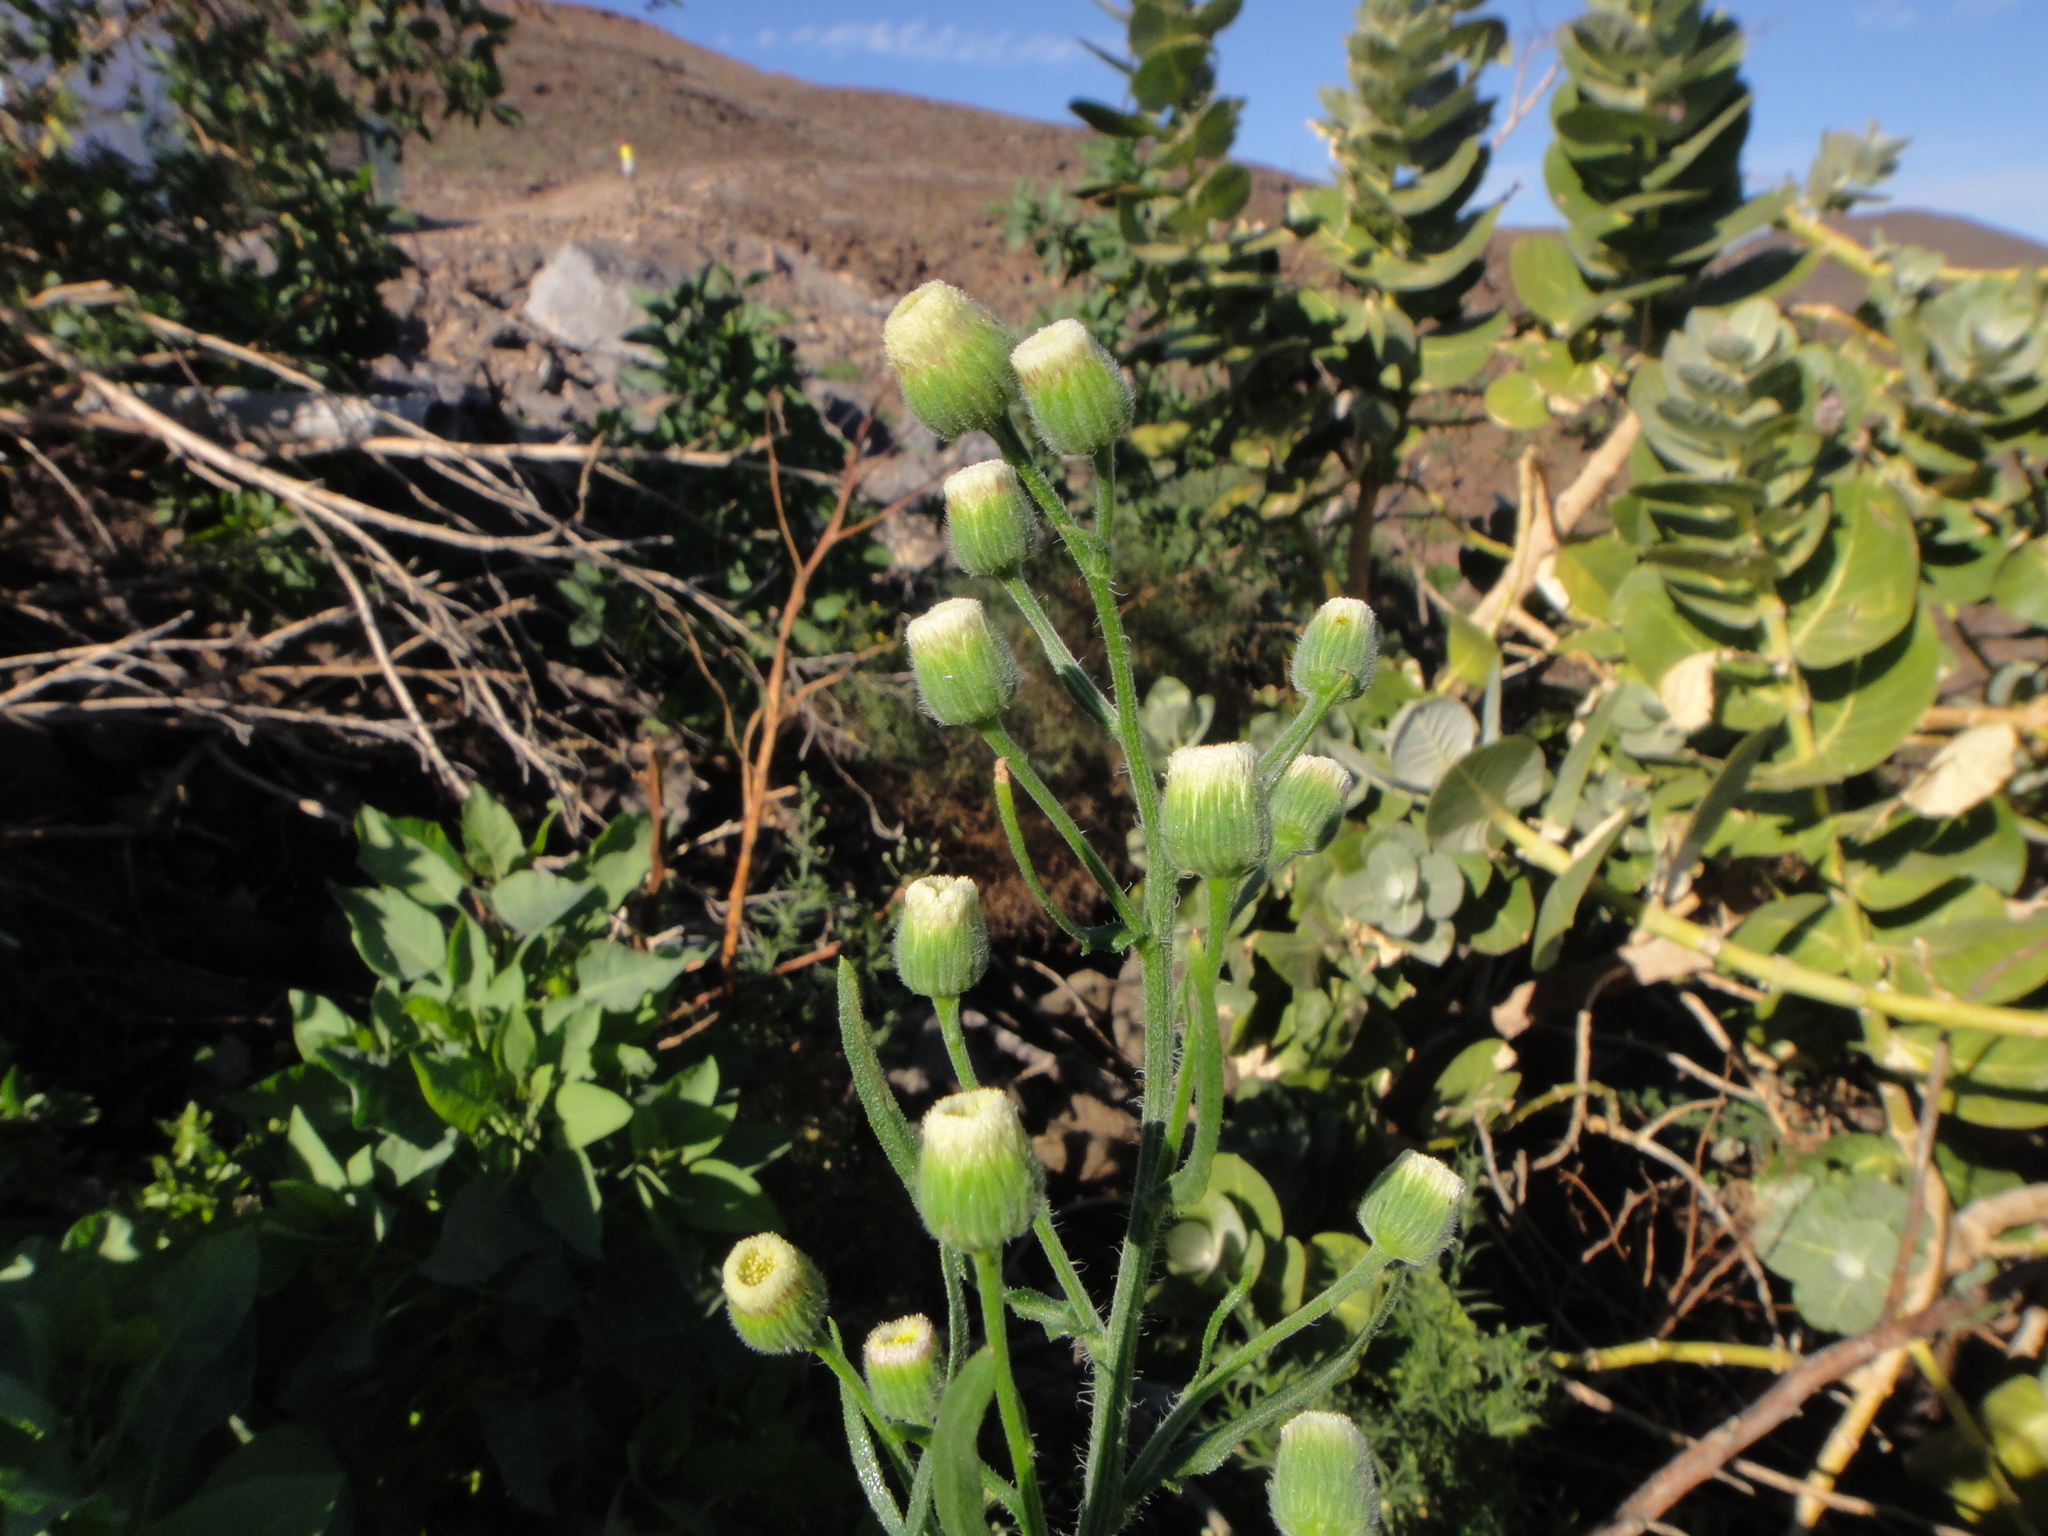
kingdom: Plantae
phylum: Tracheophyta
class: Magnoliopsida
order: Asterales
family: Asteraceae
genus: Erigeron
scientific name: Erigeron bonariensis
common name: Argentine fleabane
